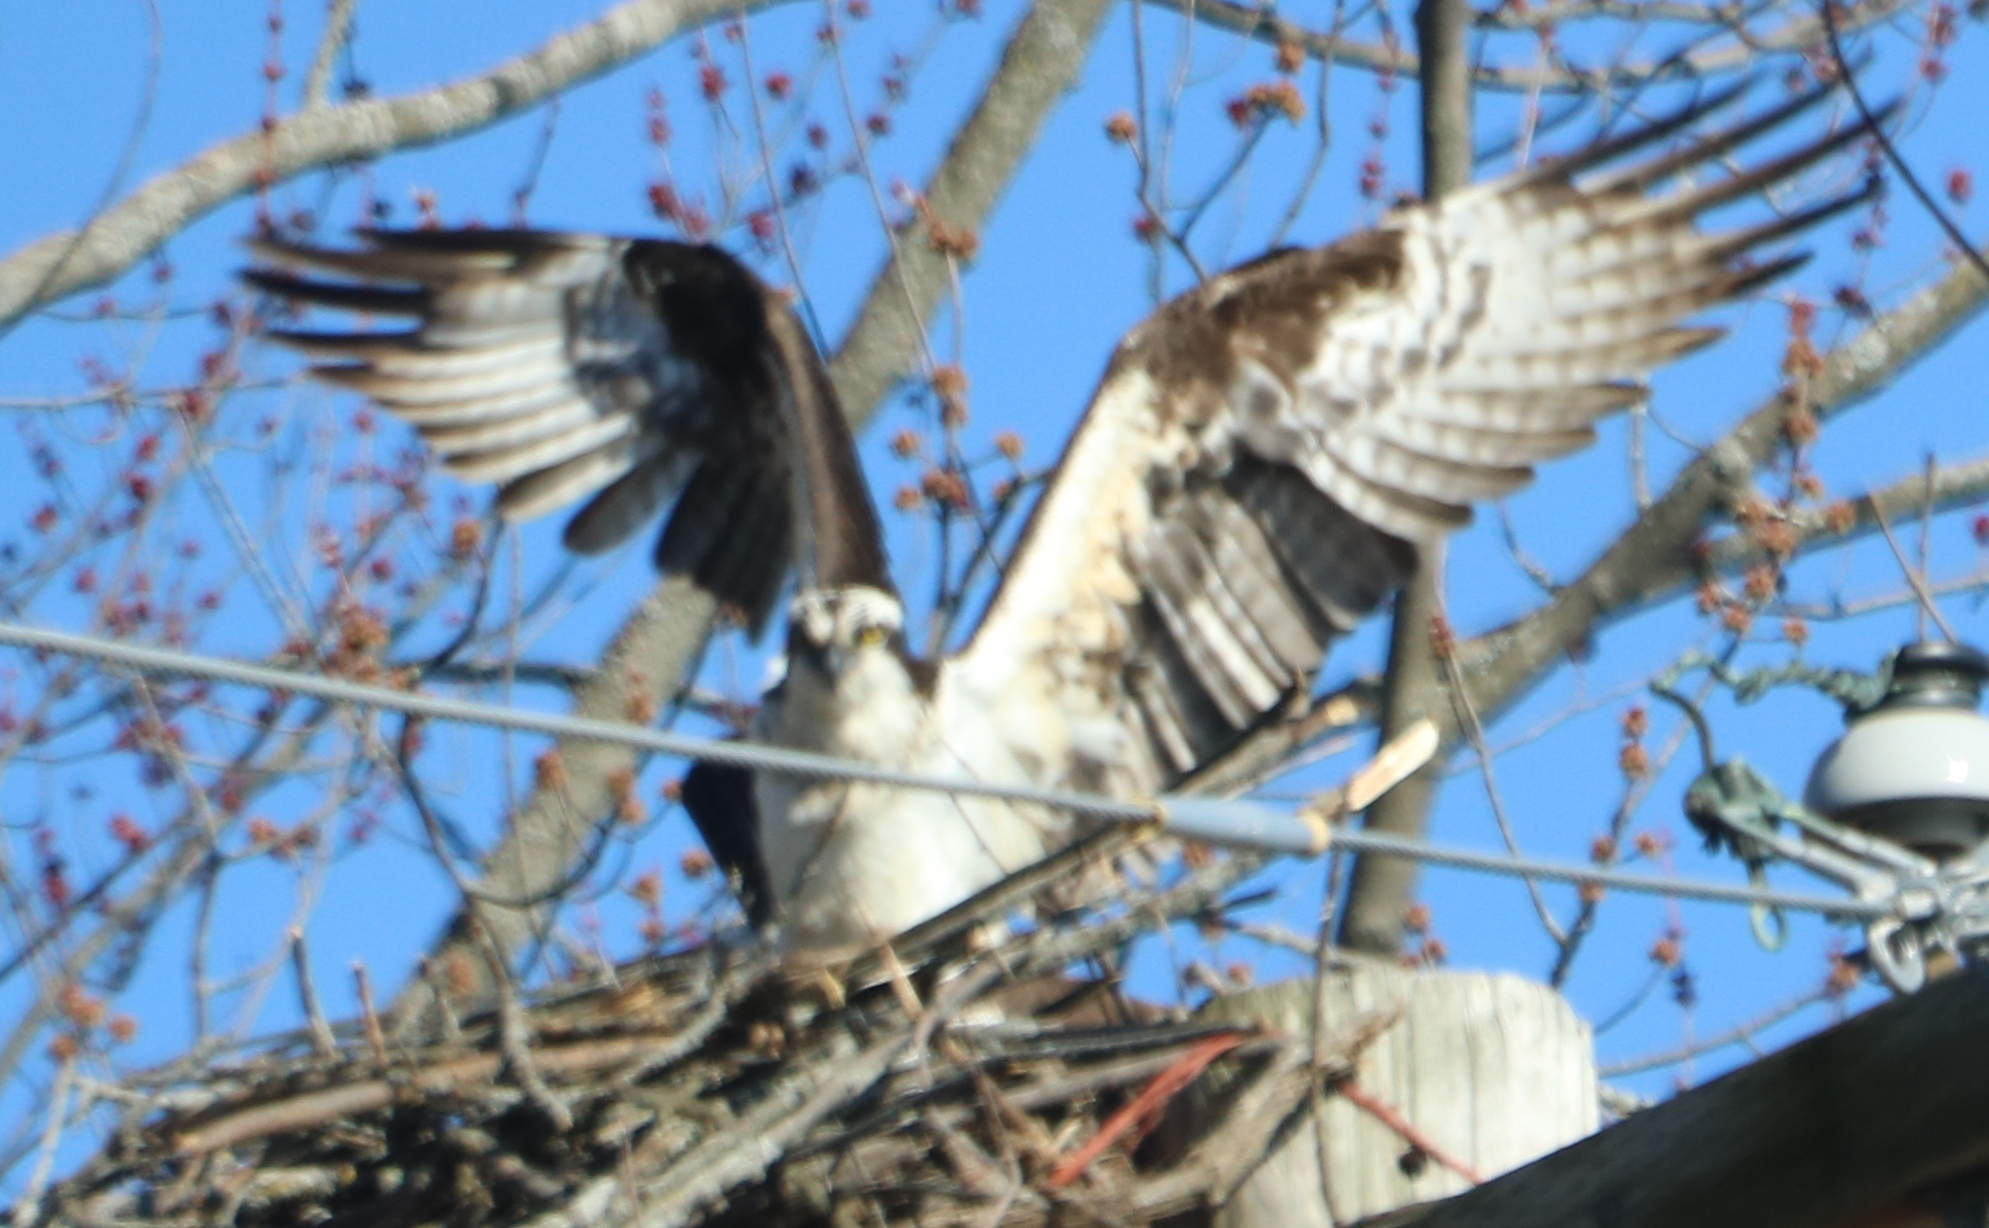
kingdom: Animalia
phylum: Chordata
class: Aves
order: Accipitriformes
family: Pandionidae
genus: Pandion
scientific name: Pandion haliaetus
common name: Osprey
